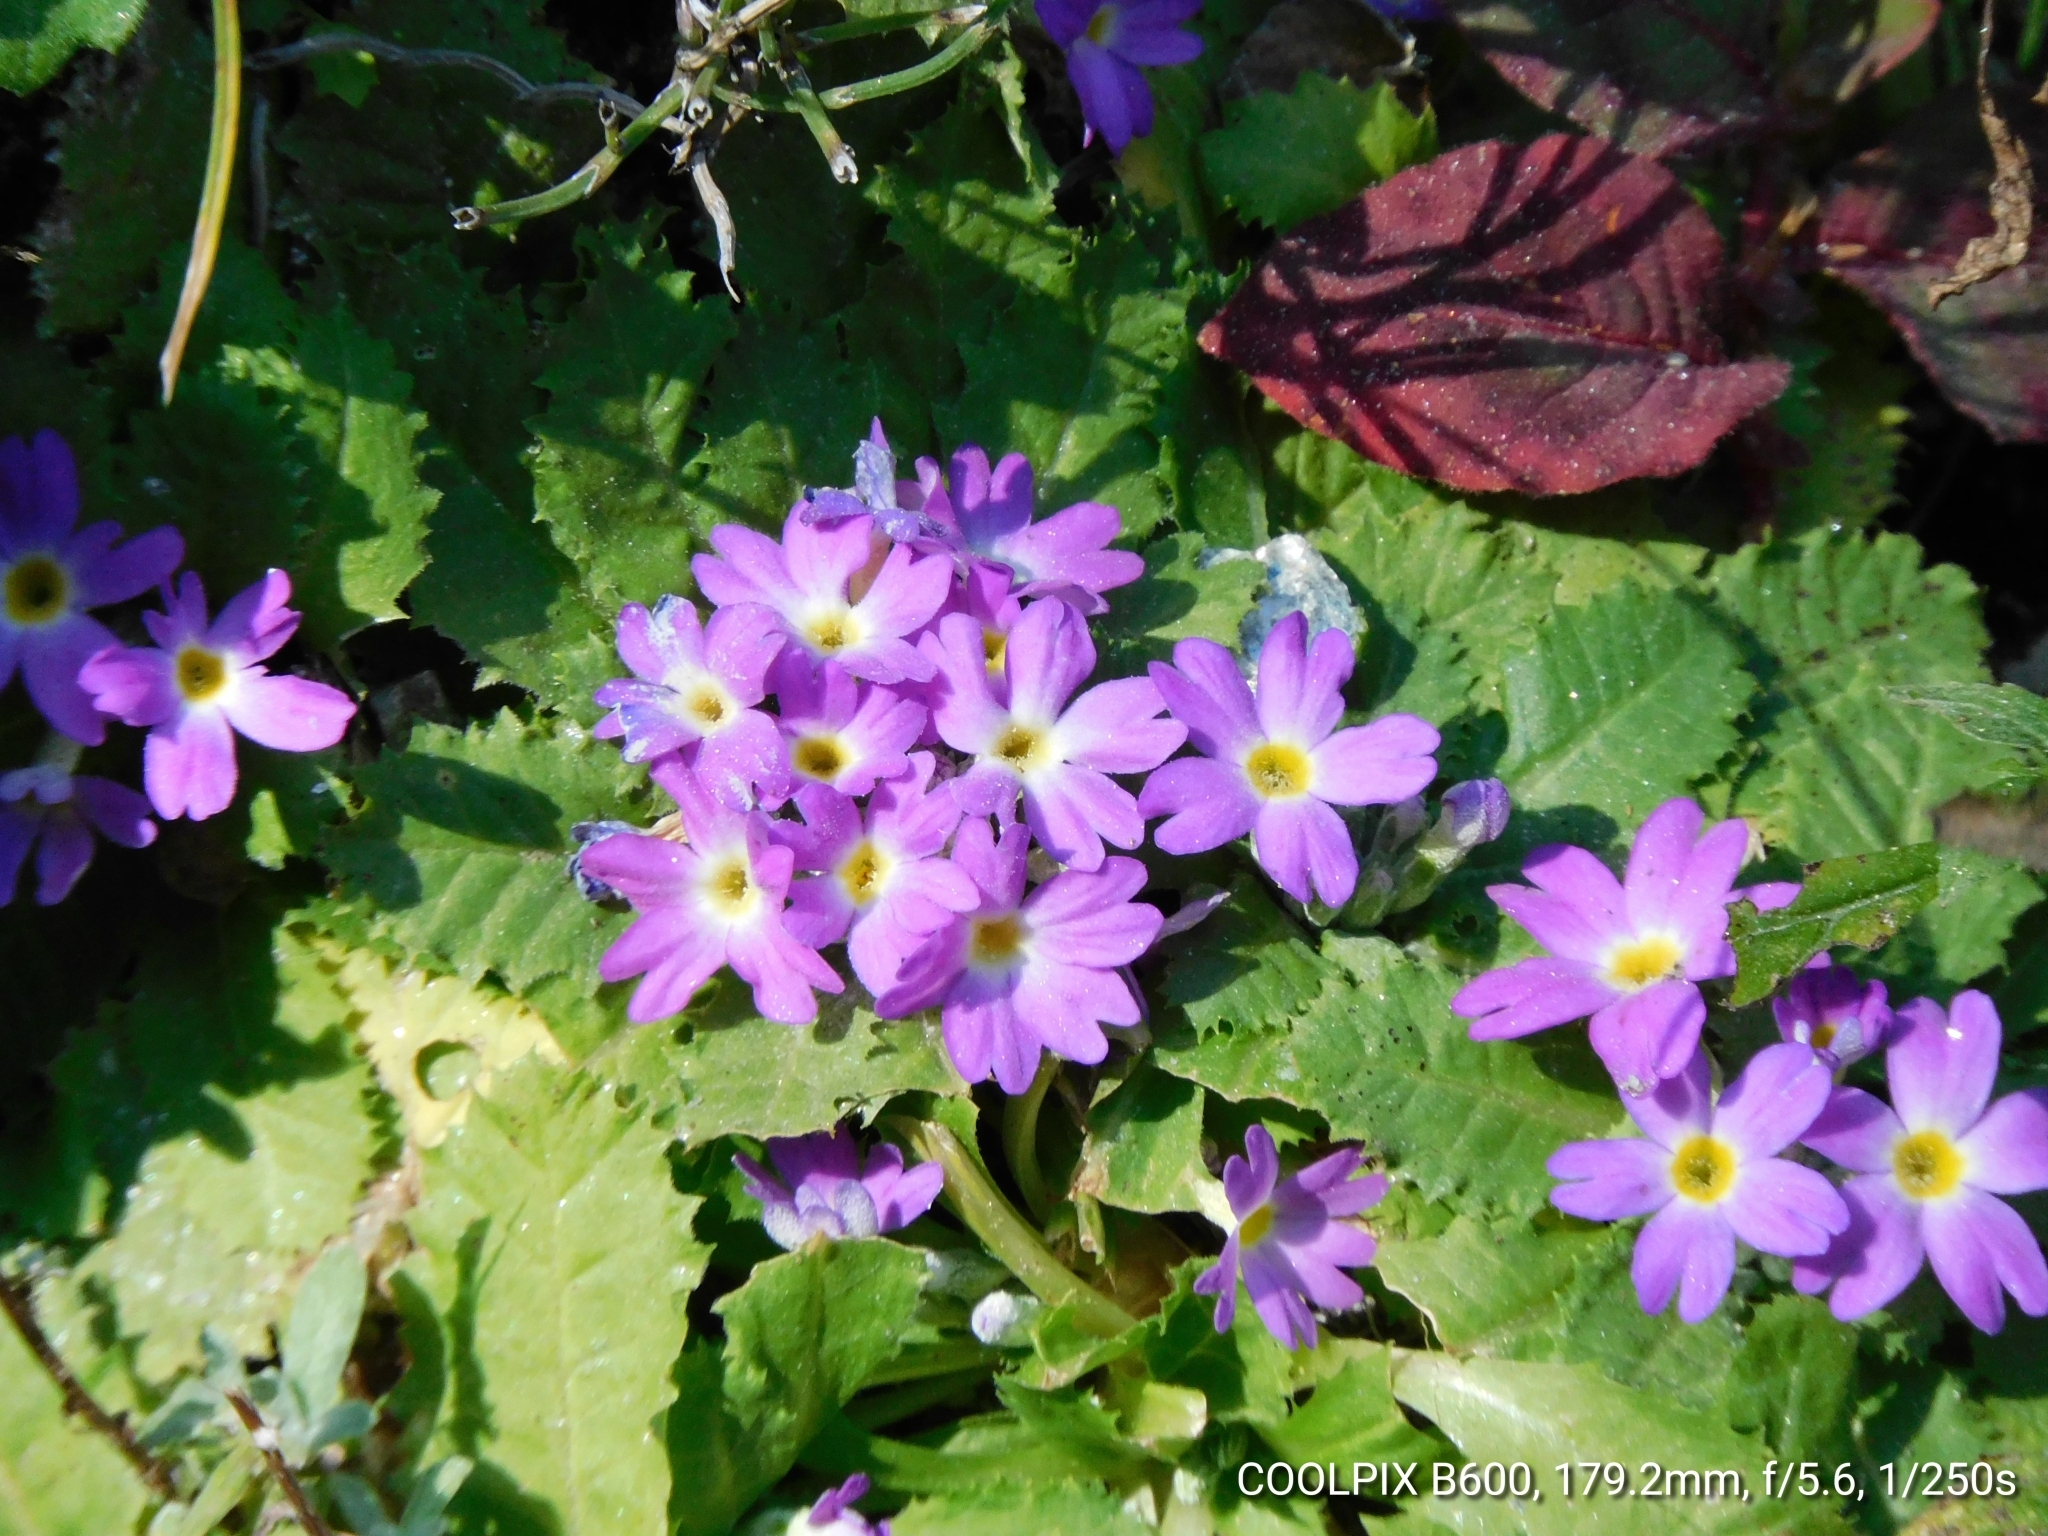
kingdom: Plantae
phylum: Tracheophyta
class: Magnoliopsida
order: Ericales
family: Primulaceae
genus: Primula
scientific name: Primula drummondiana
